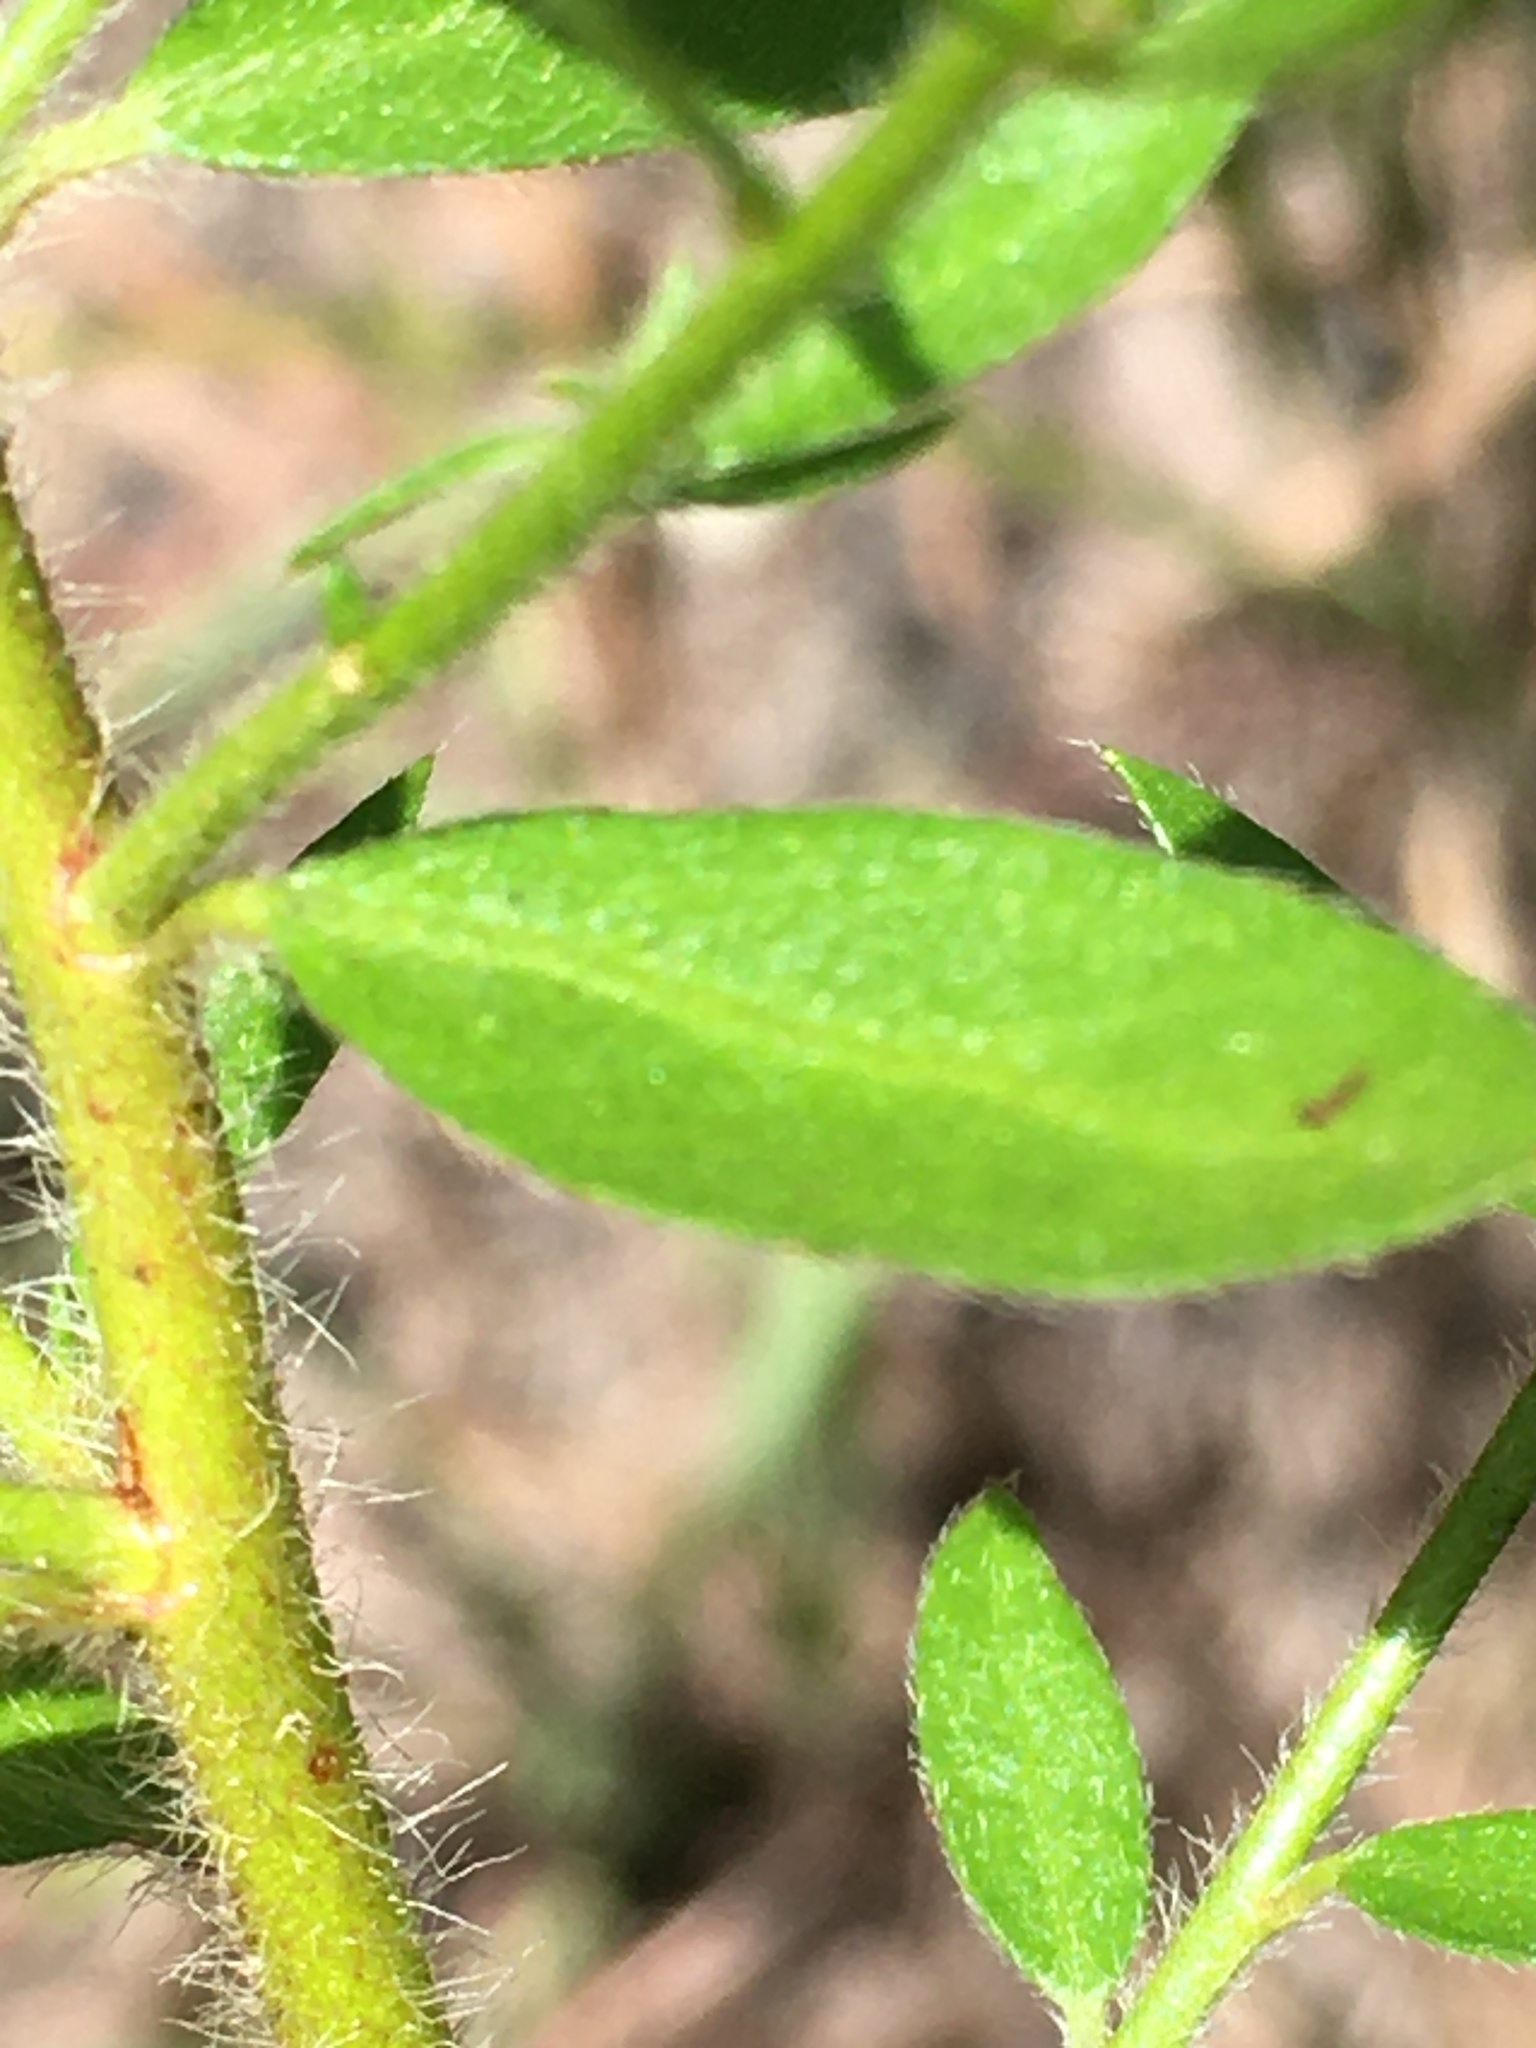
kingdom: Plantae
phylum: Tracheophyta
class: Magnoliopsida
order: Malvales
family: Cistaceae
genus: Lechea
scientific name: Lechea mucronata
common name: Hairy pinweed
